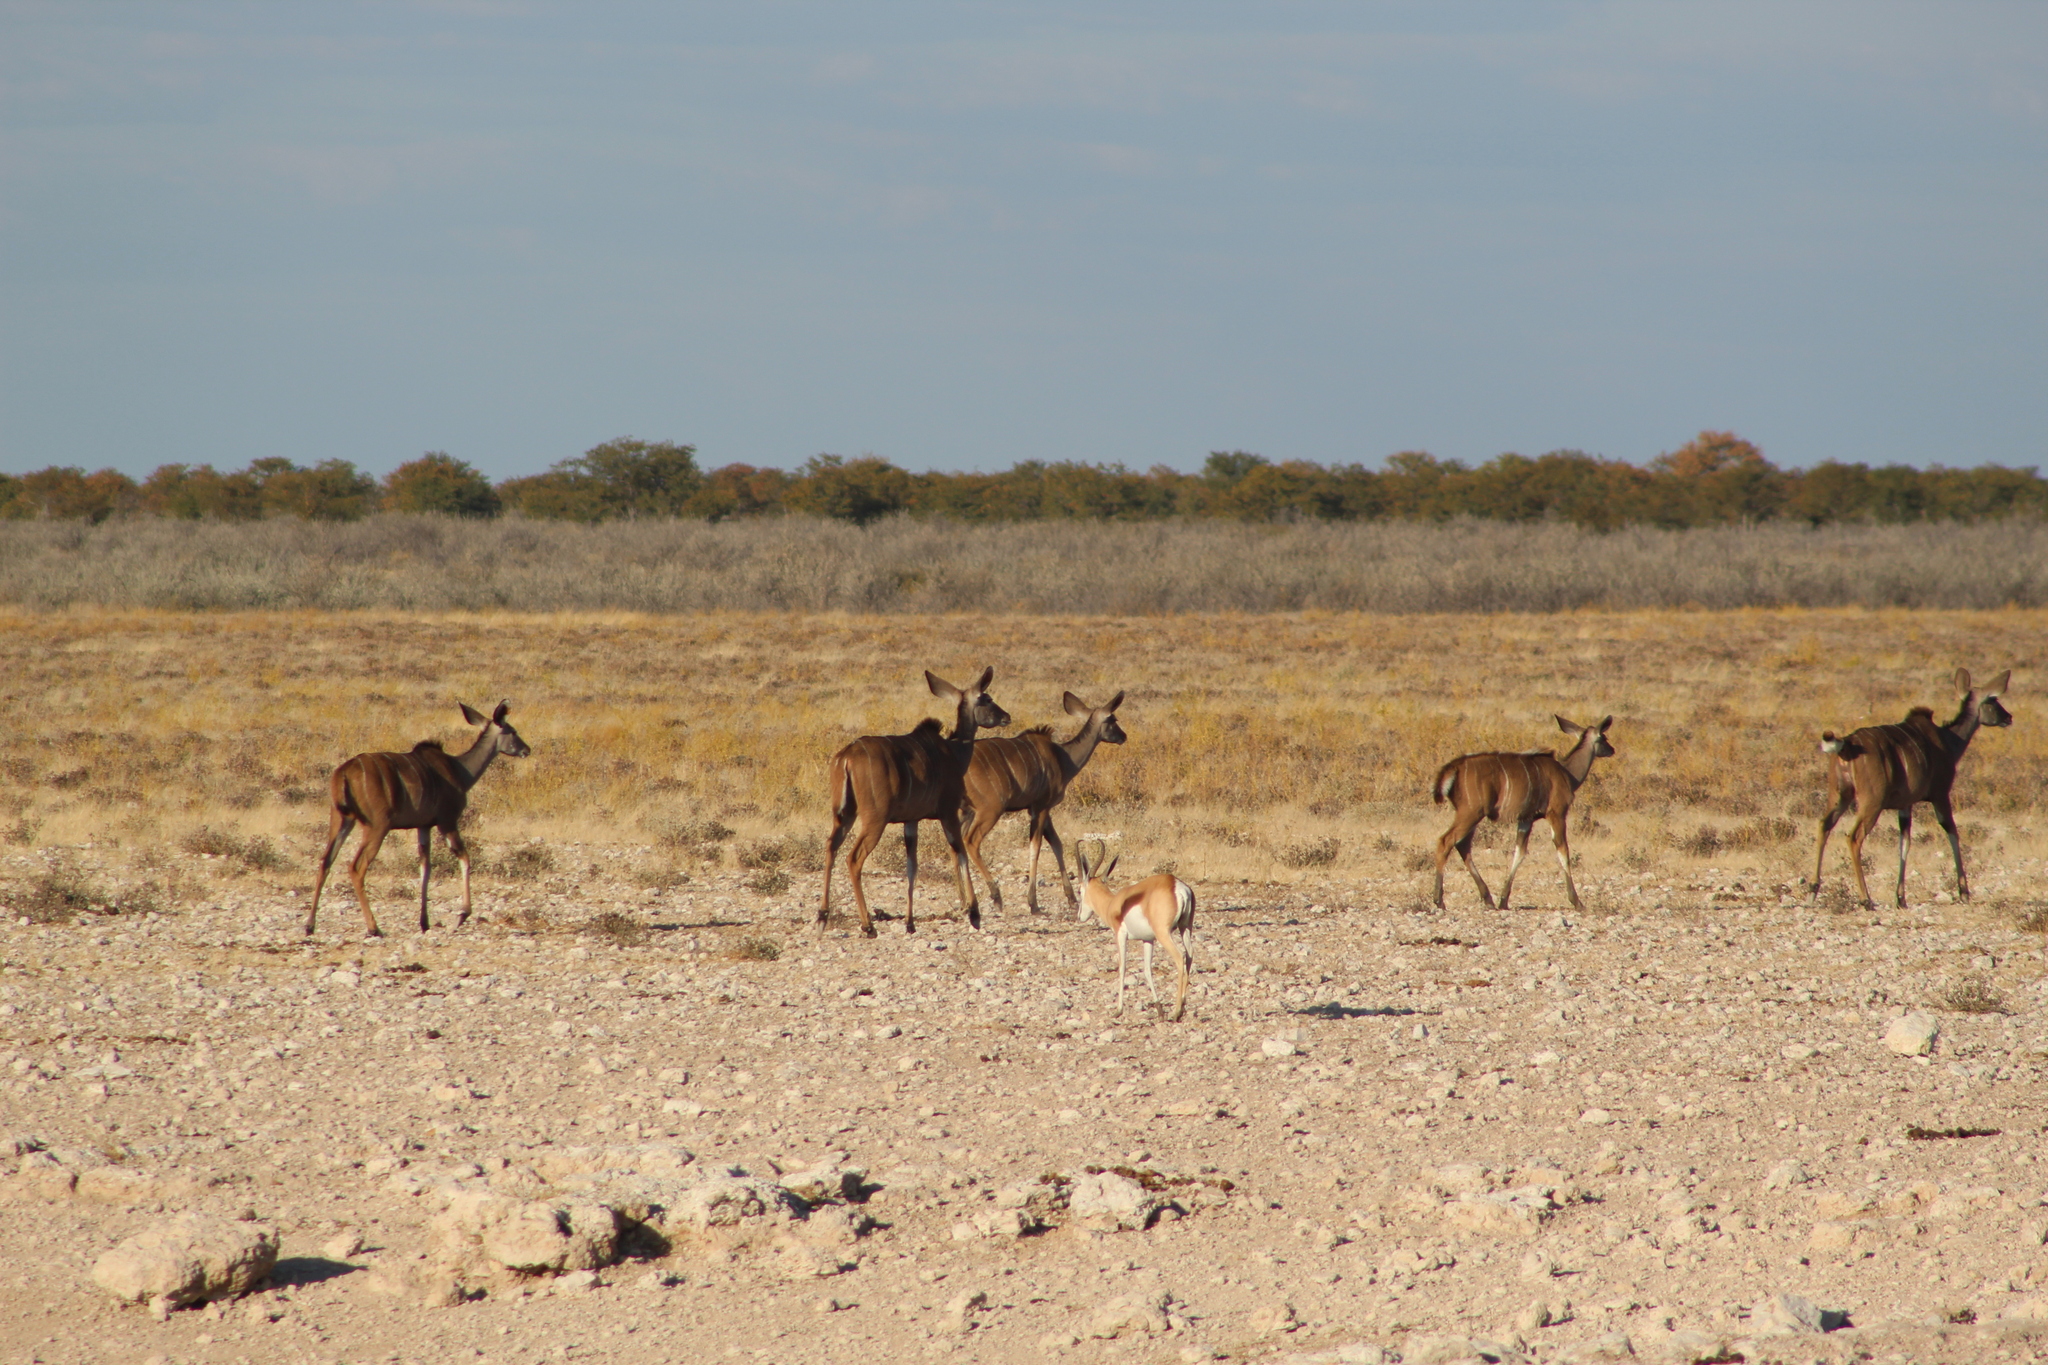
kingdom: Animalia
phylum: Chordata
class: Mammalia
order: Artiodactyla
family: Bovidae
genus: Tragelaphus
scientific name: Tragelaphus strepsiceros
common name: Greater kudu
